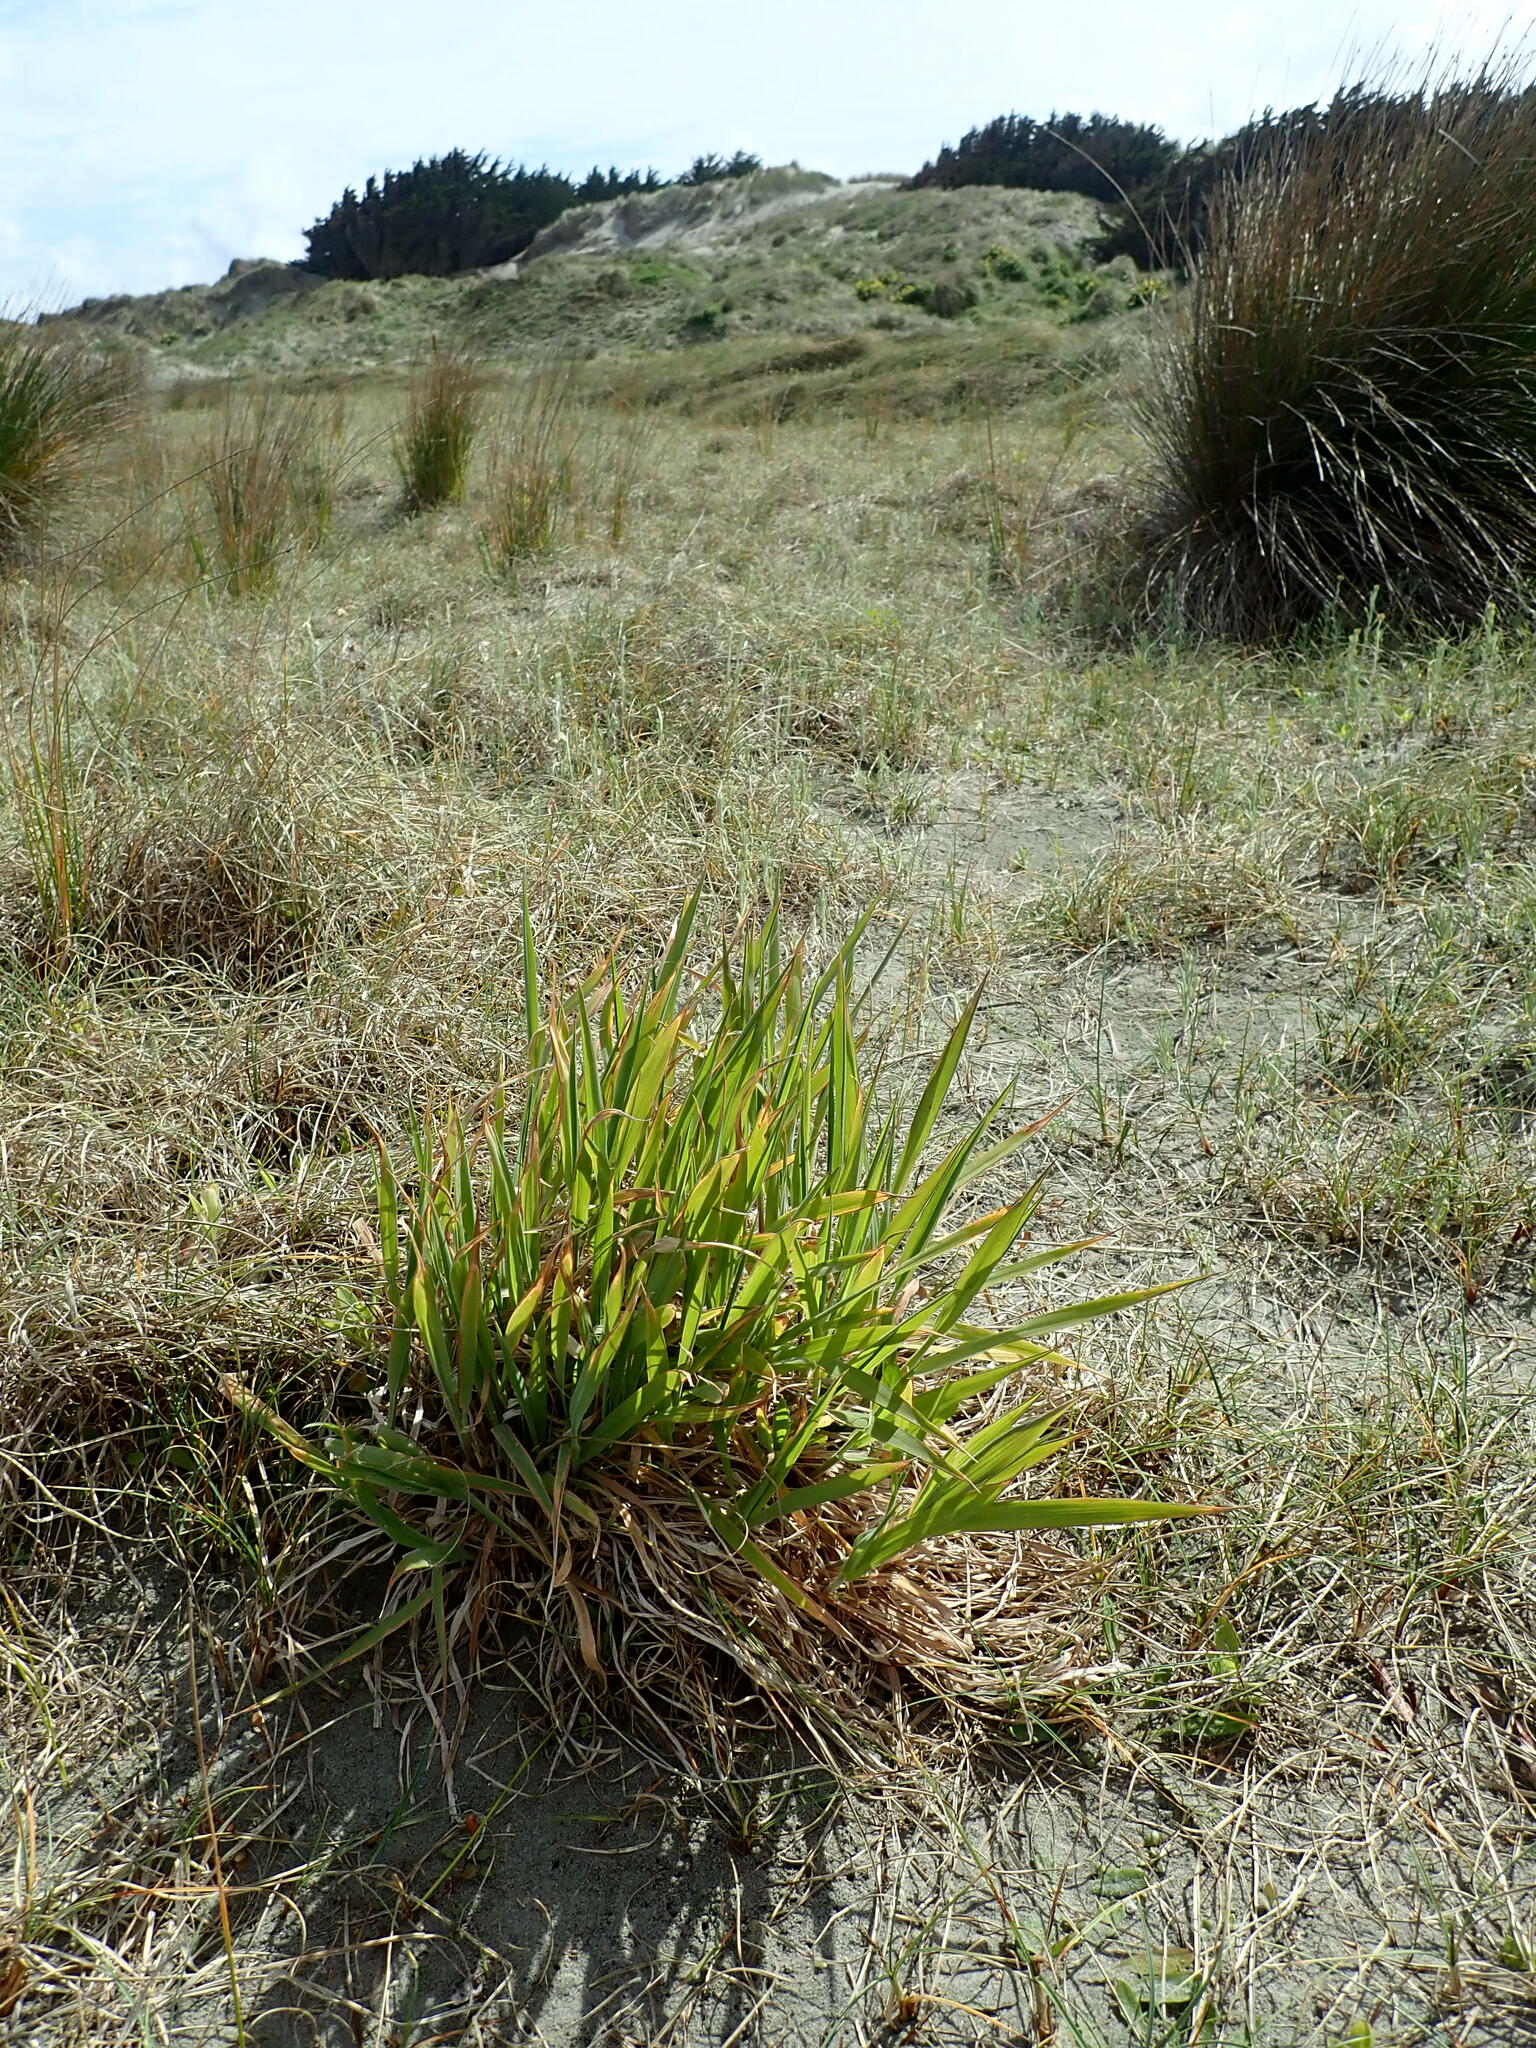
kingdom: Plantae
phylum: Tracheophyta
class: Liliopsida
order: Poales
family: Poaceae
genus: Holcus
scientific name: Holcus lanatus
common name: Yorkshire-fog
